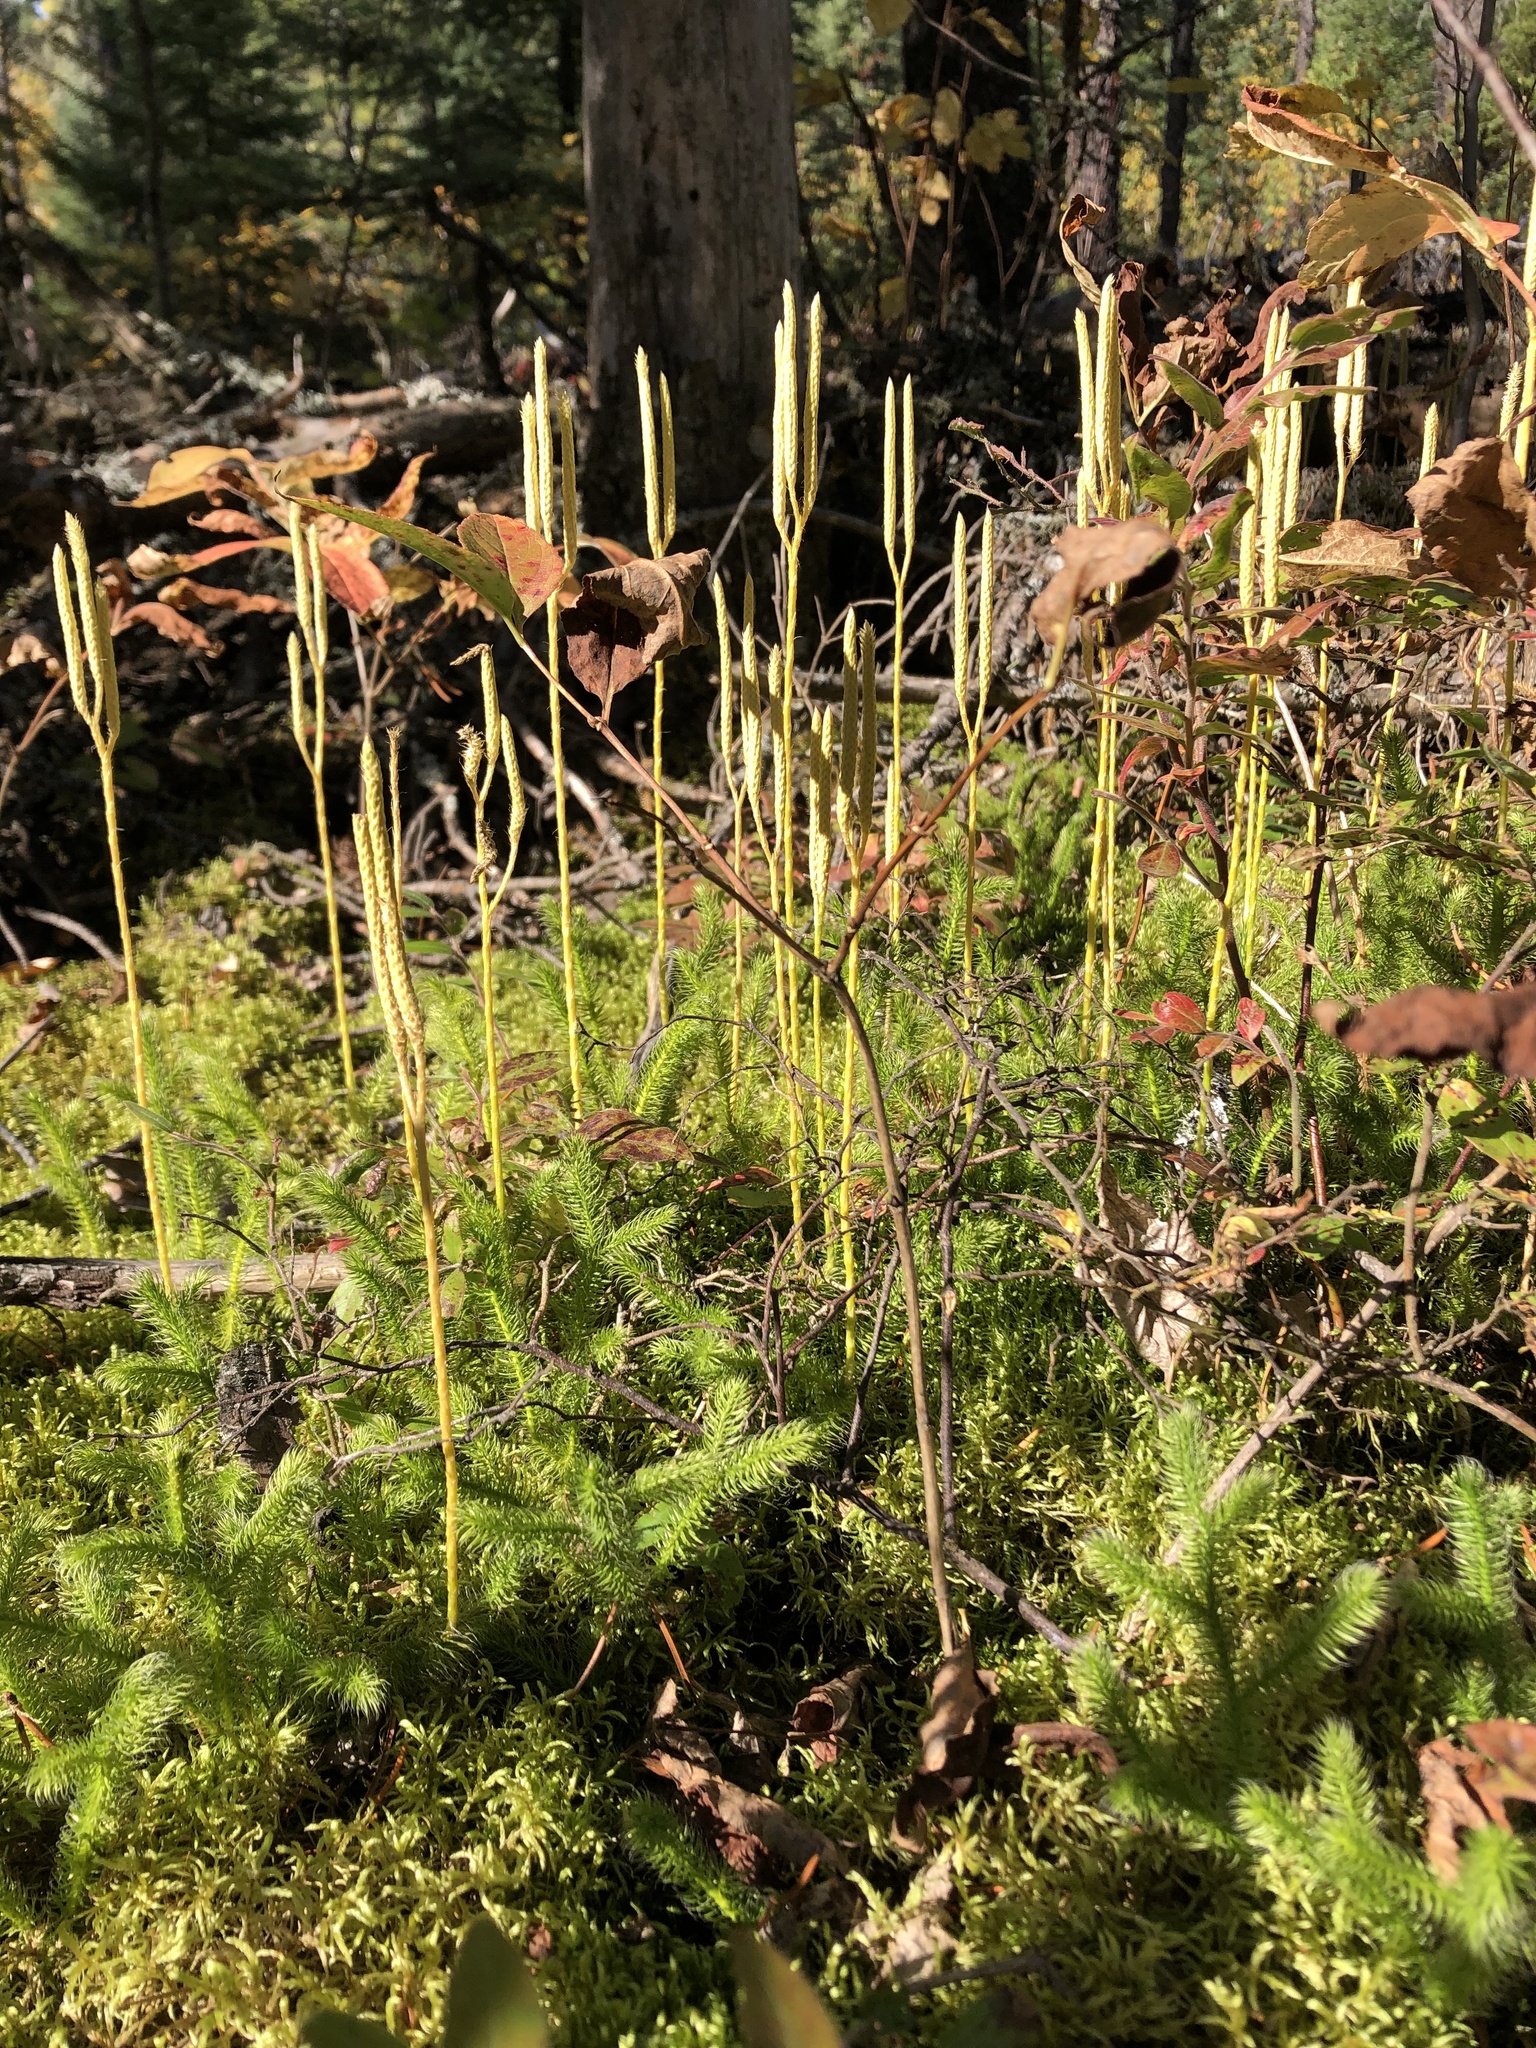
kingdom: Plantae
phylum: Tracheophyta
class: Lycopodiopsida
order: Lycopodiales
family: Lycopodiaceae
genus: Lycopodium
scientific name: Lycopodium clavatum
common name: Stag's-horn clubmoss
